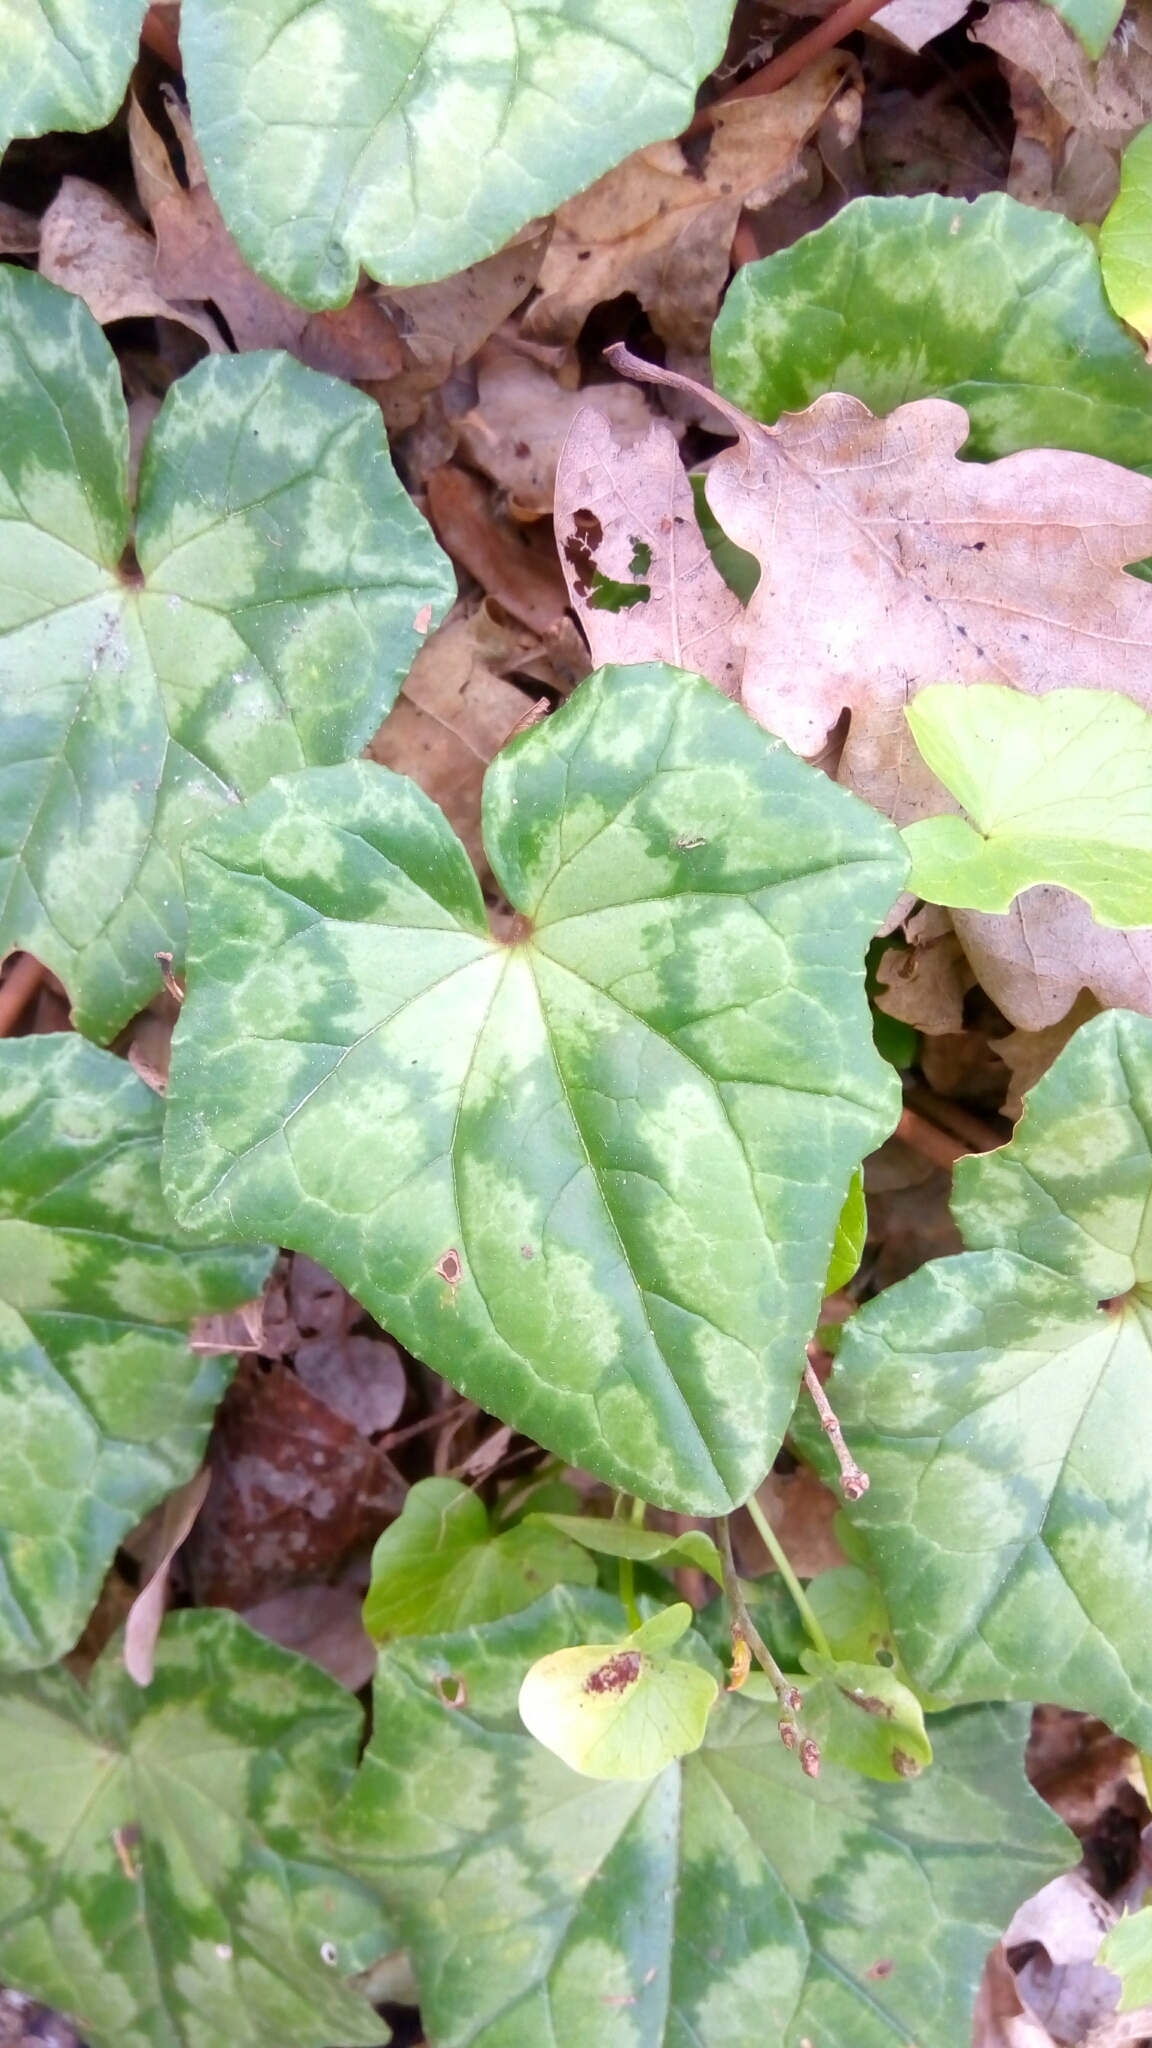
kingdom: Plantae
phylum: Tracheophyta
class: Magnoliopsida
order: Ericales
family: Primulaceae
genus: Cyclamen
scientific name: Cyclamen hederifolium
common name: Sowbread
